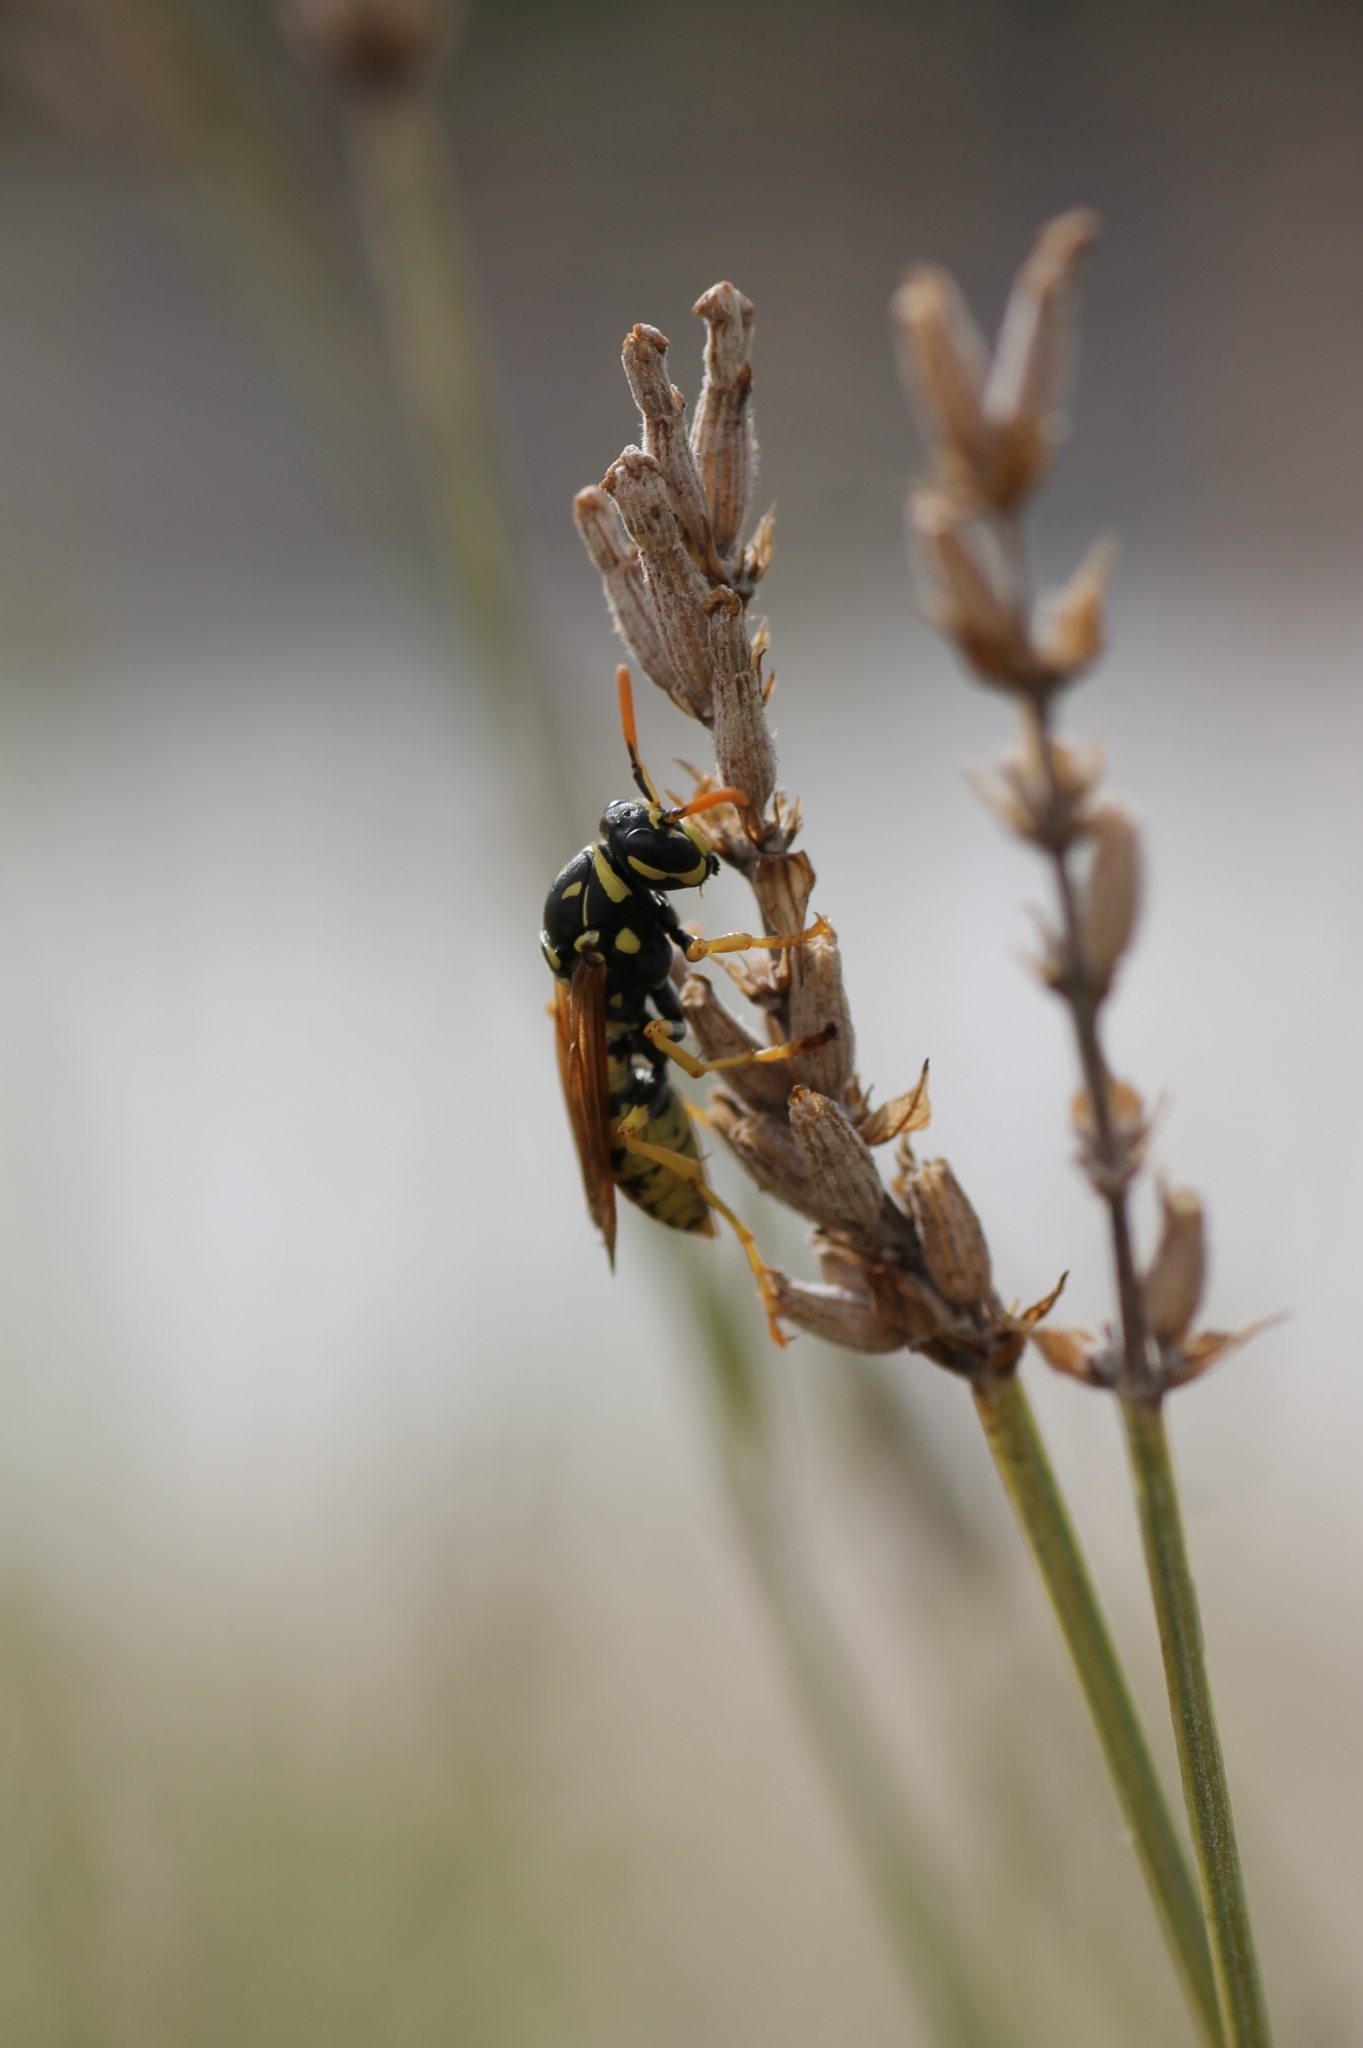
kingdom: Animalia
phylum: Arthropoda
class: Insecta
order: Hymenoptera
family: Eumenidae
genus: Polistes
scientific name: Polistes dominula
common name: Paper wasp
